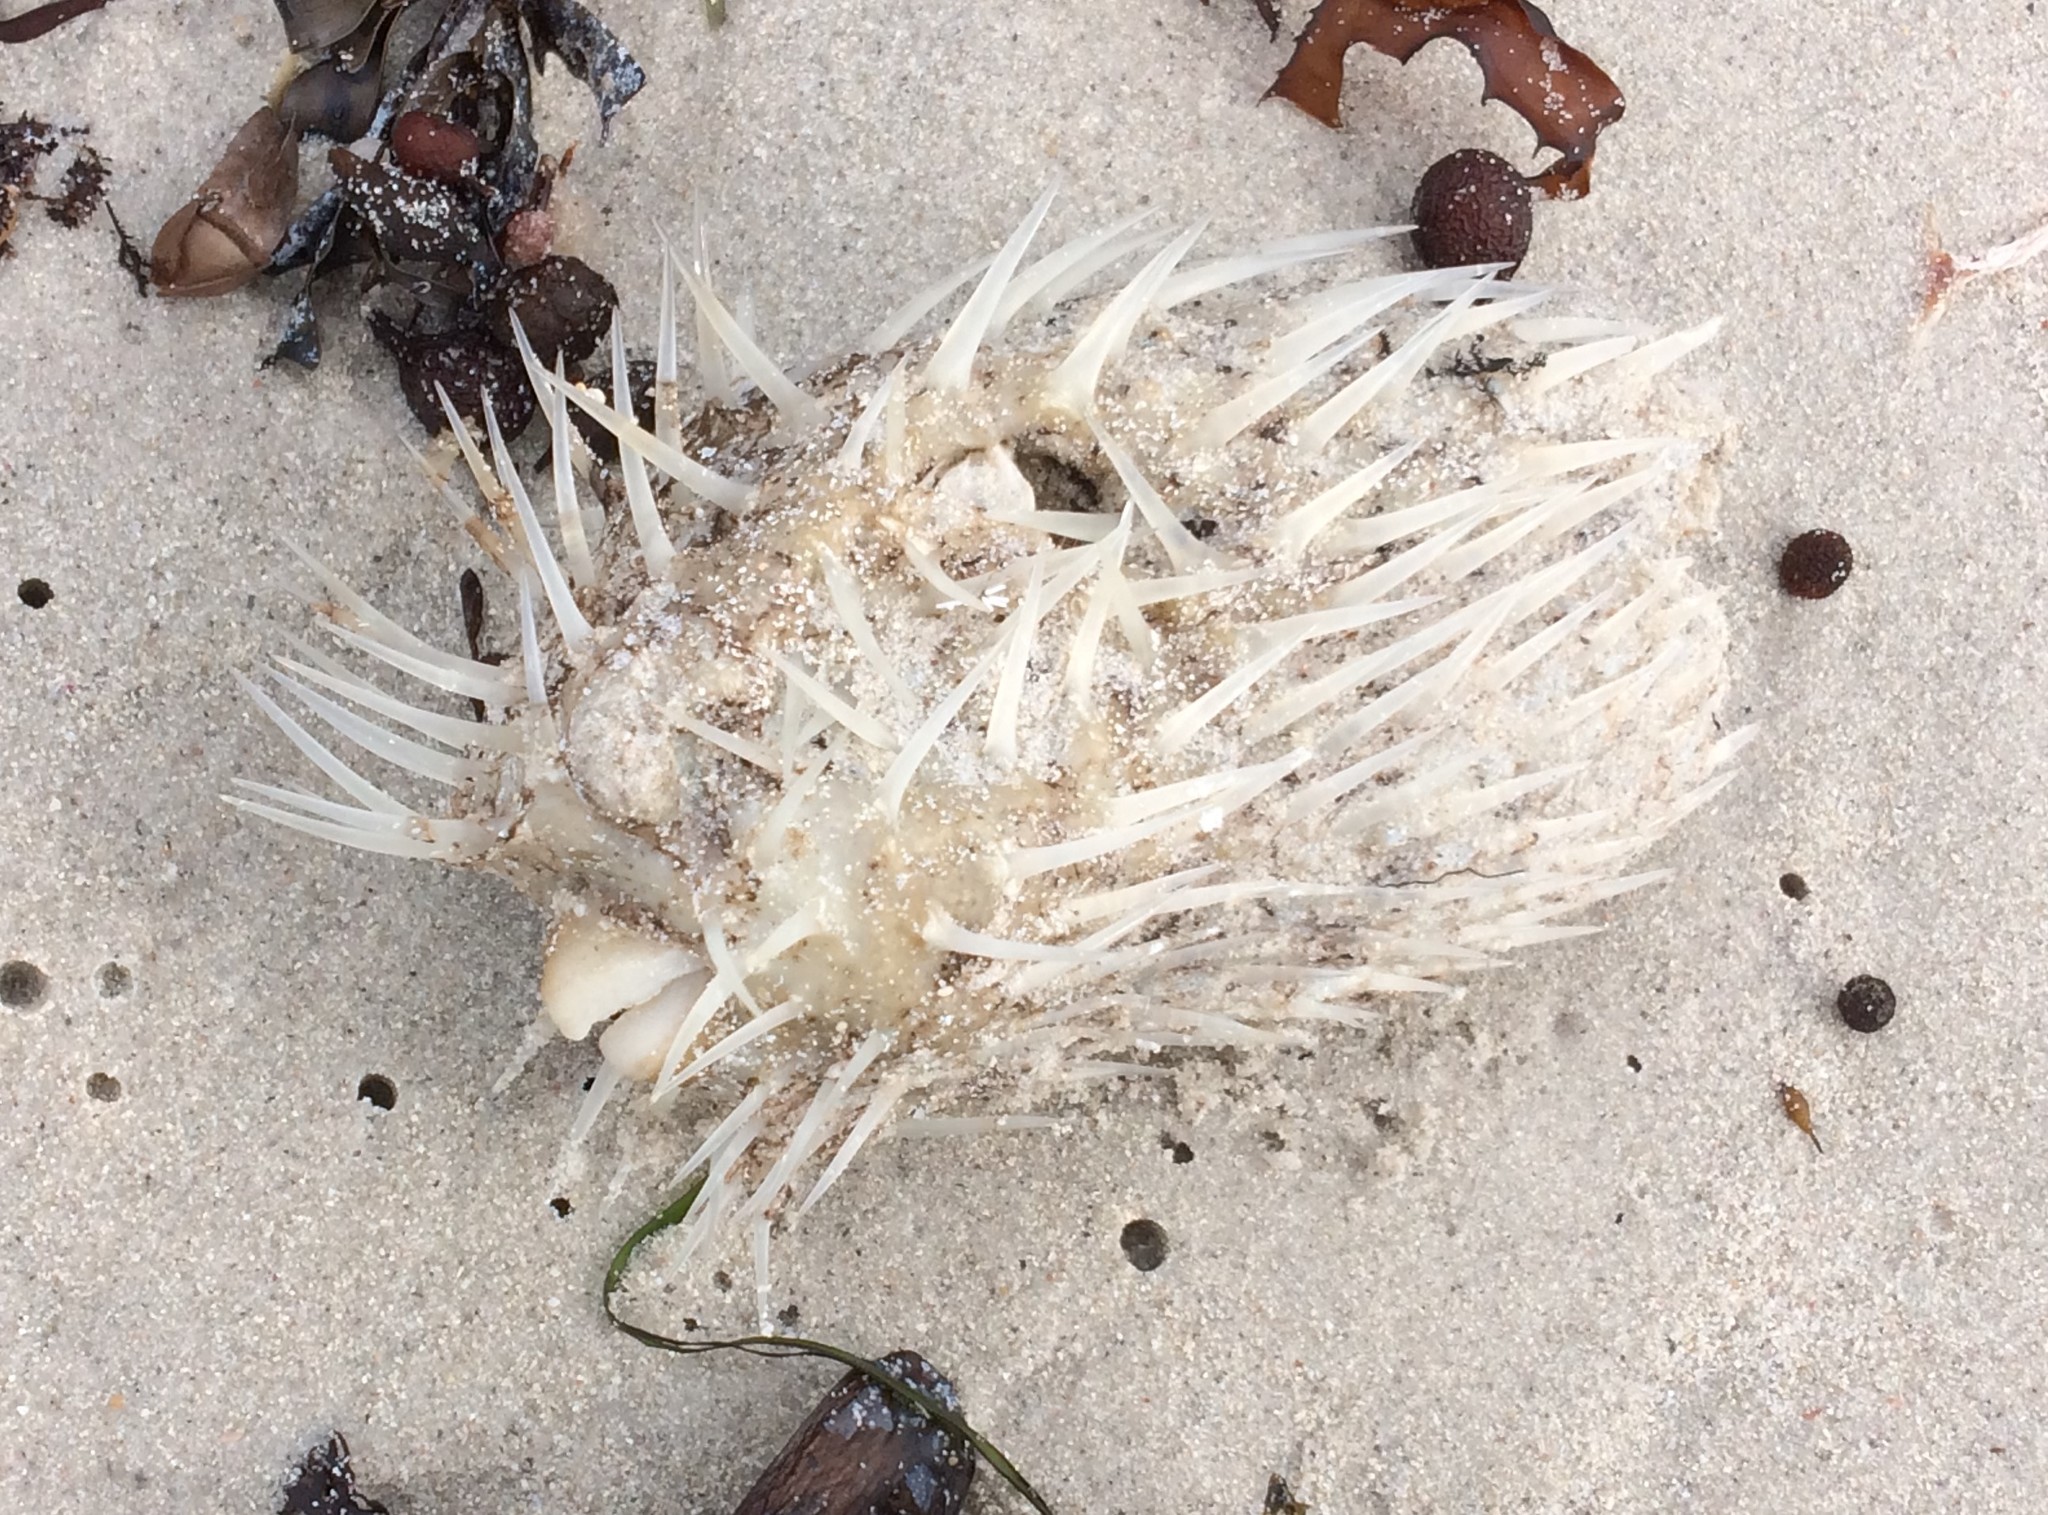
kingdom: Animalia
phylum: Chordata
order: Tetraodontiformes
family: Diodontidae
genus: Diodon
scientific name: Diodon nicthemerus
